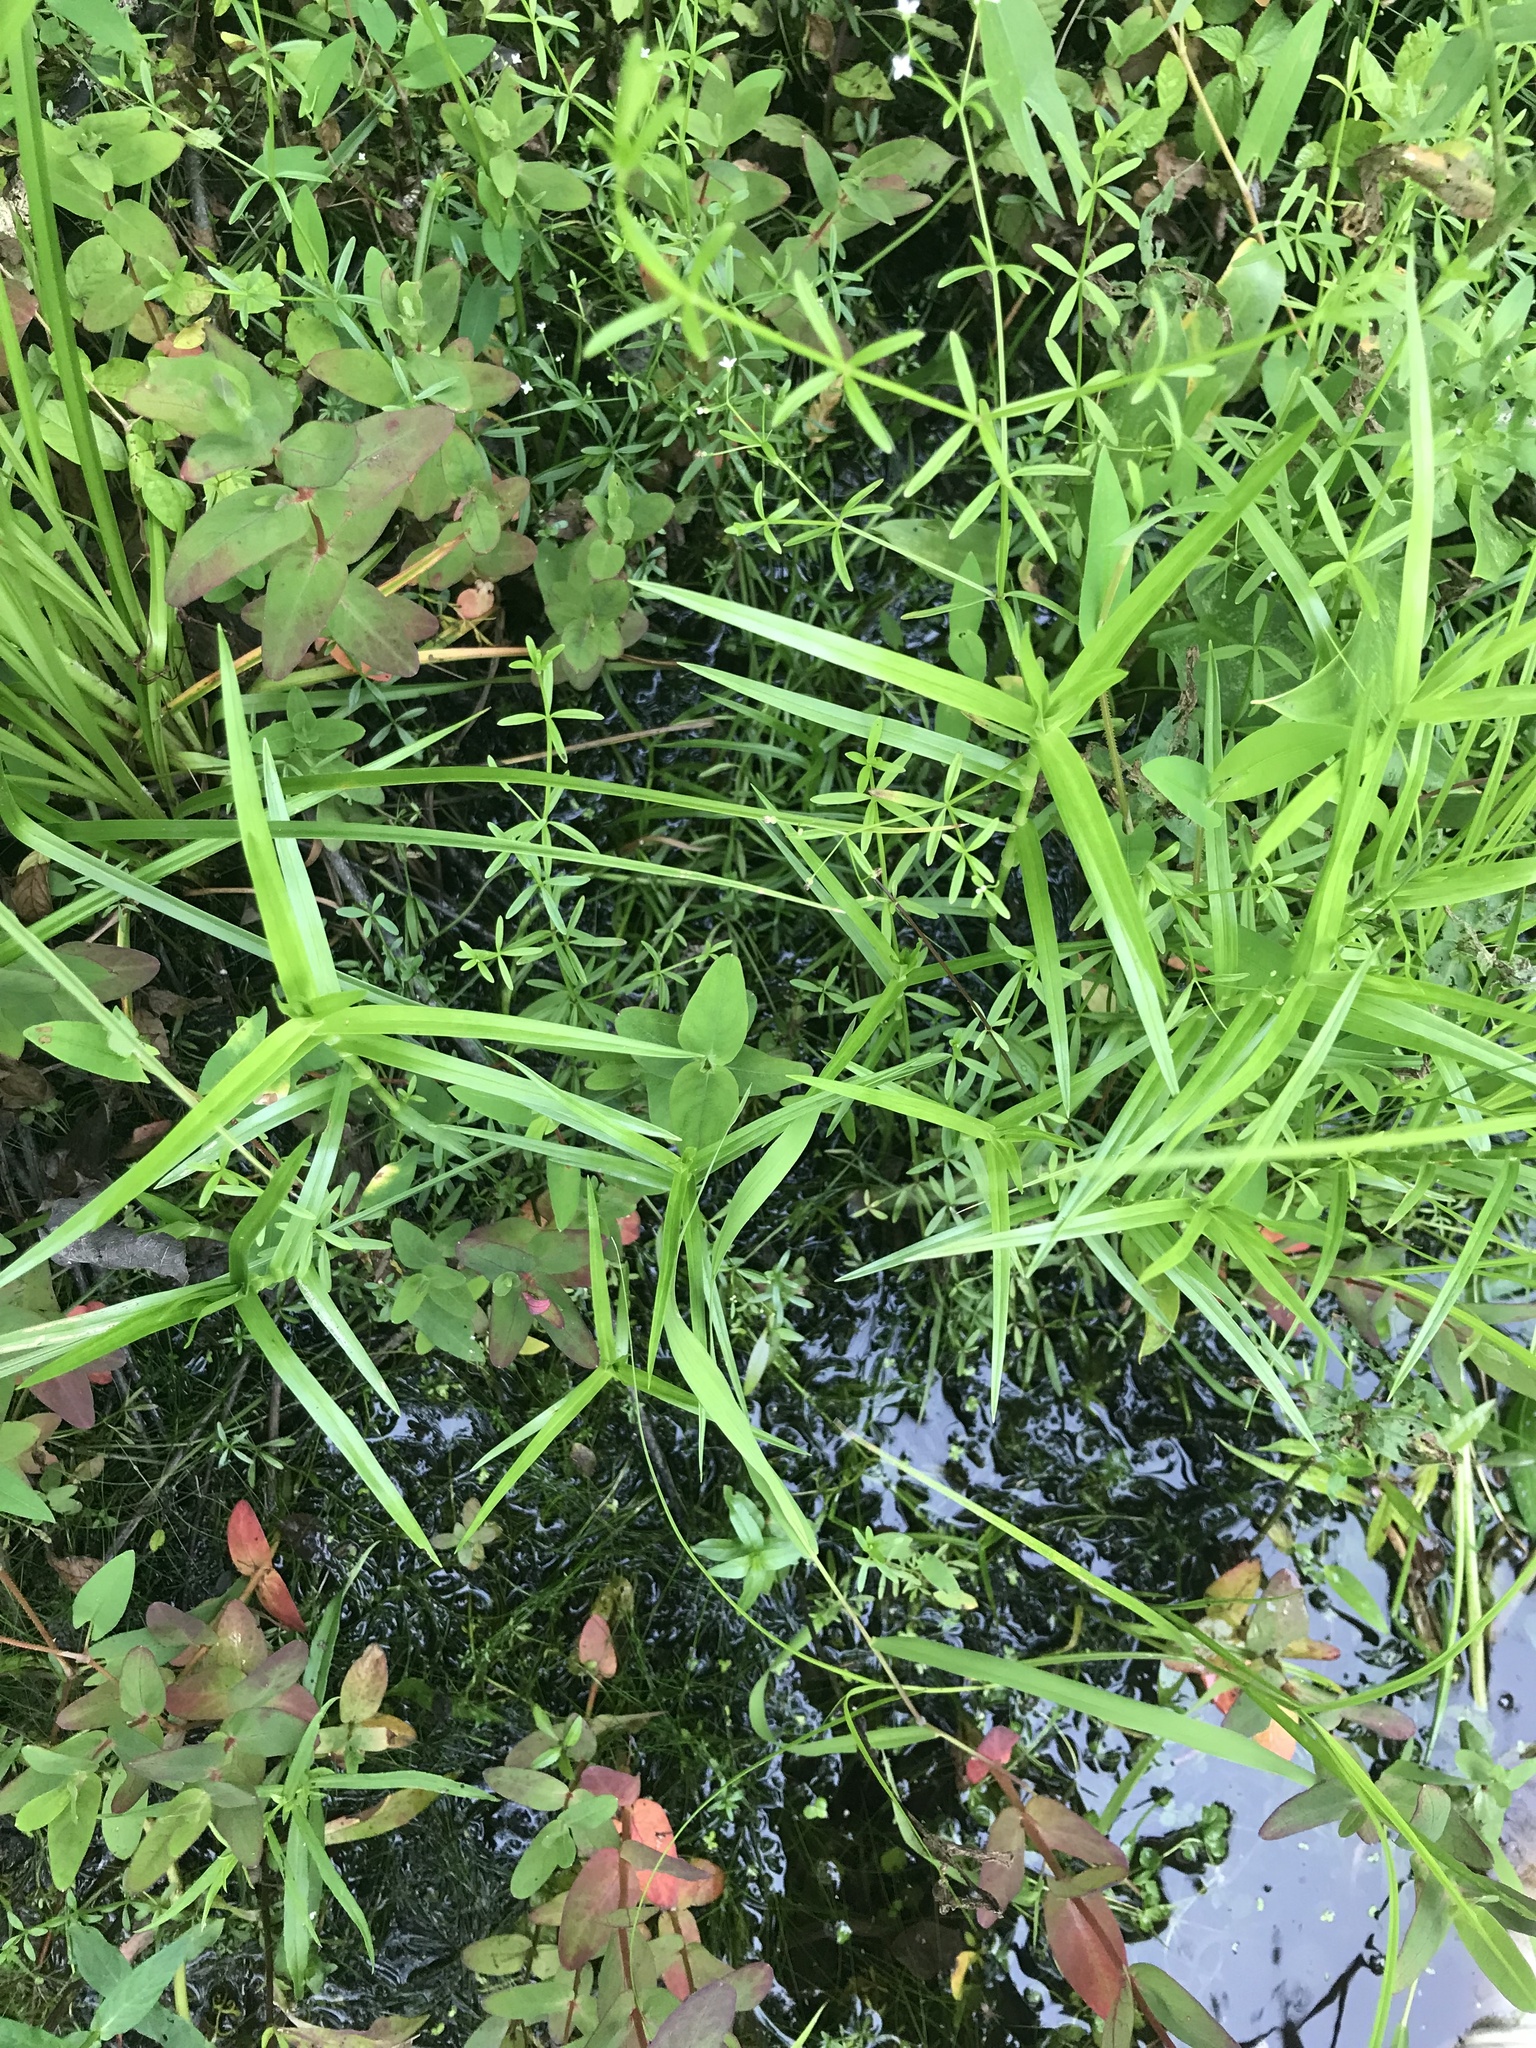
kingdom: Plantae
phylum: Tracheophyta
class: Liliopsida
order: Poales
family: Cyperaceae
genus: Dulichium
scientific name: Dulichium arundinaceum
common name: Three-way sedge
